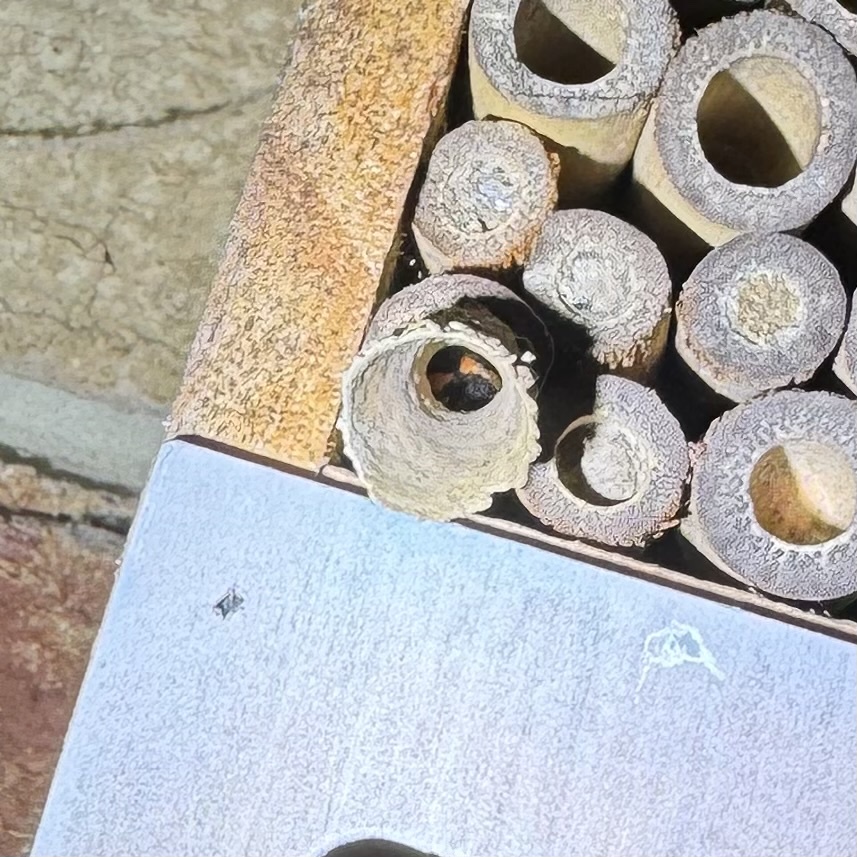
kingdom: Animalia
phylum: Arthropoda
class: Insecta
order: Hymenoptera
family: Eumenidae
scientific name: Eumenidae
